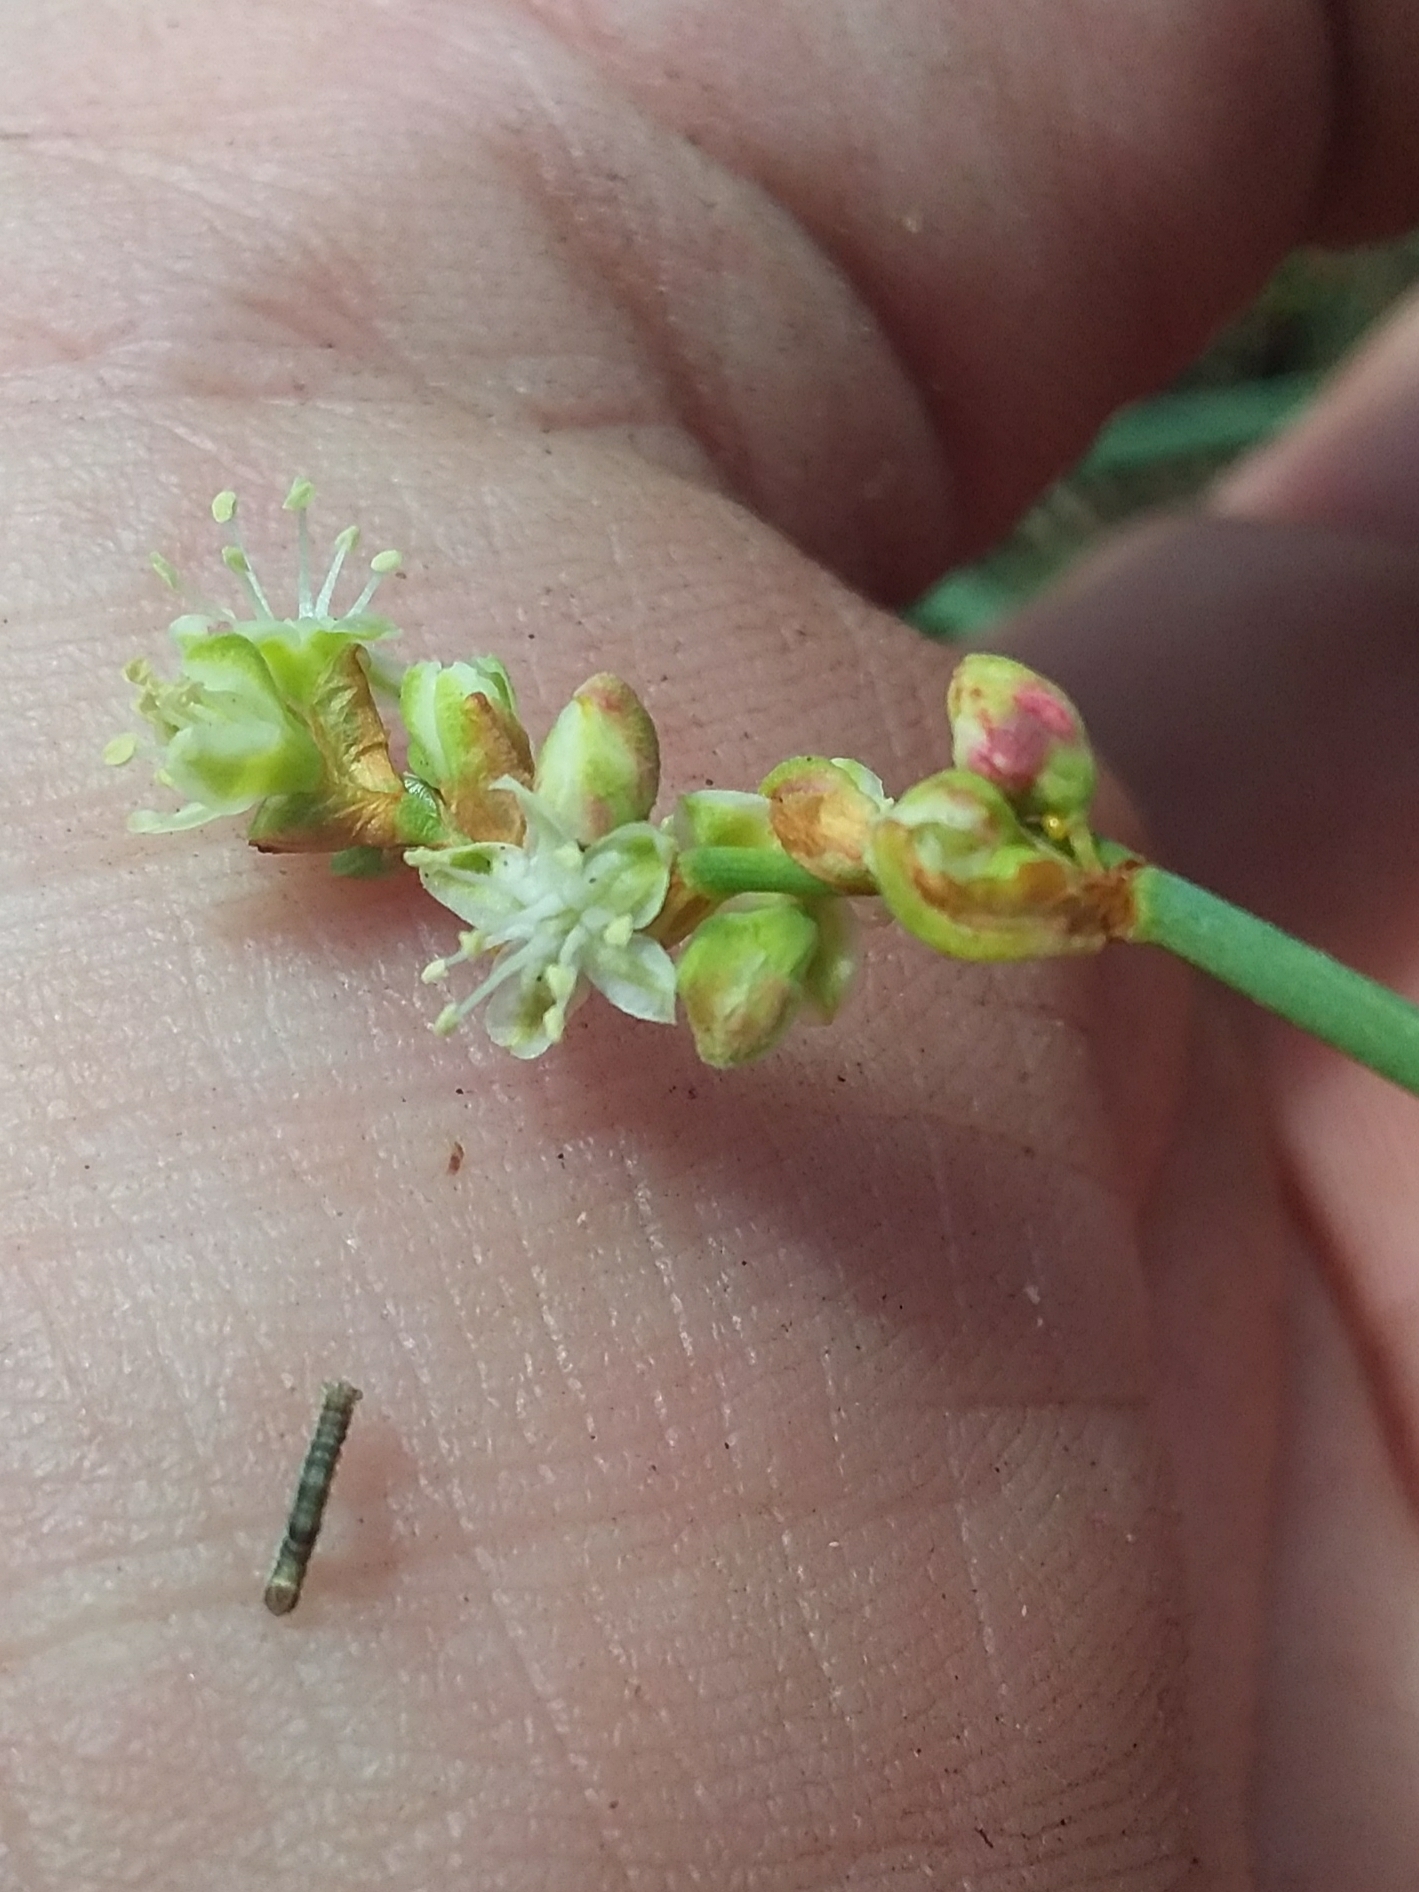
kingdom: Plantae
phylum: Tracheophyta
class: Magnoliopsida
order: Caryophyllales
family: Polygonaceae
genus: Duma
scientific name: Duma florulenta
